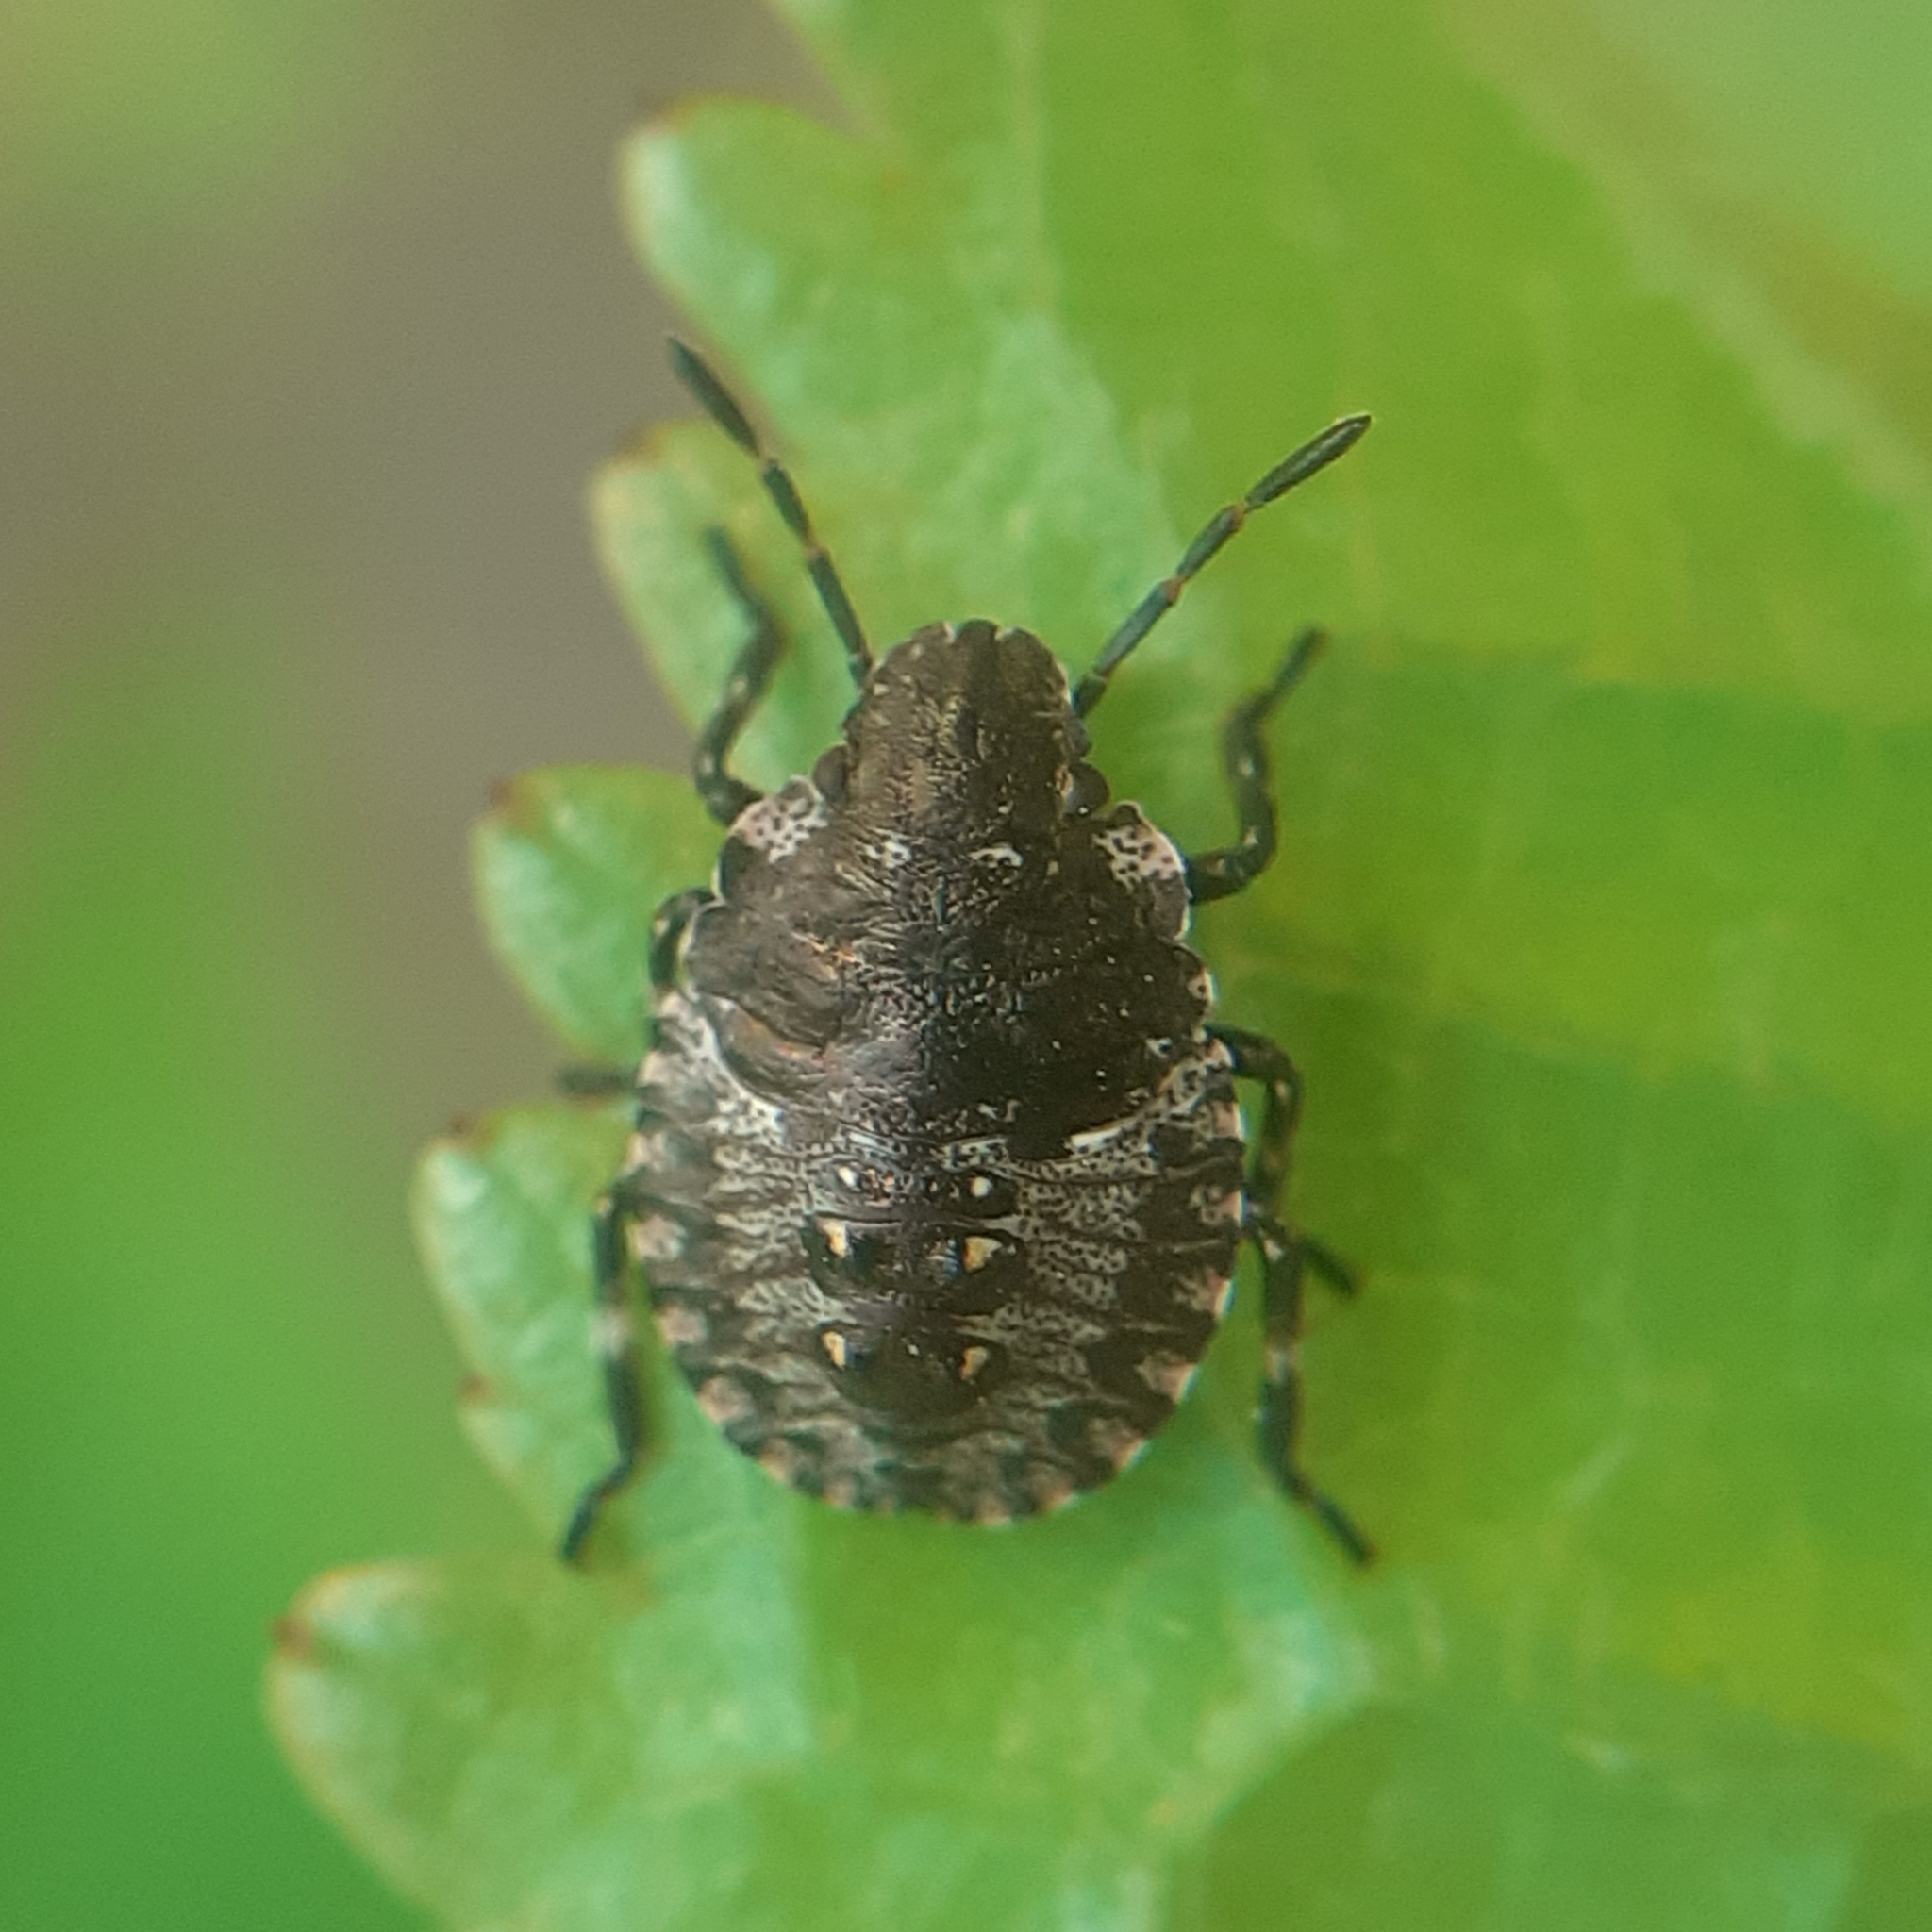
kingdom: Animalia
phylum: Arthropoda
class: Insecta
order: Hemiptera
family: Pentatomidae
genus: Pentatoma
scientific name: Pentatoma rufipes
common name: Forest bug
